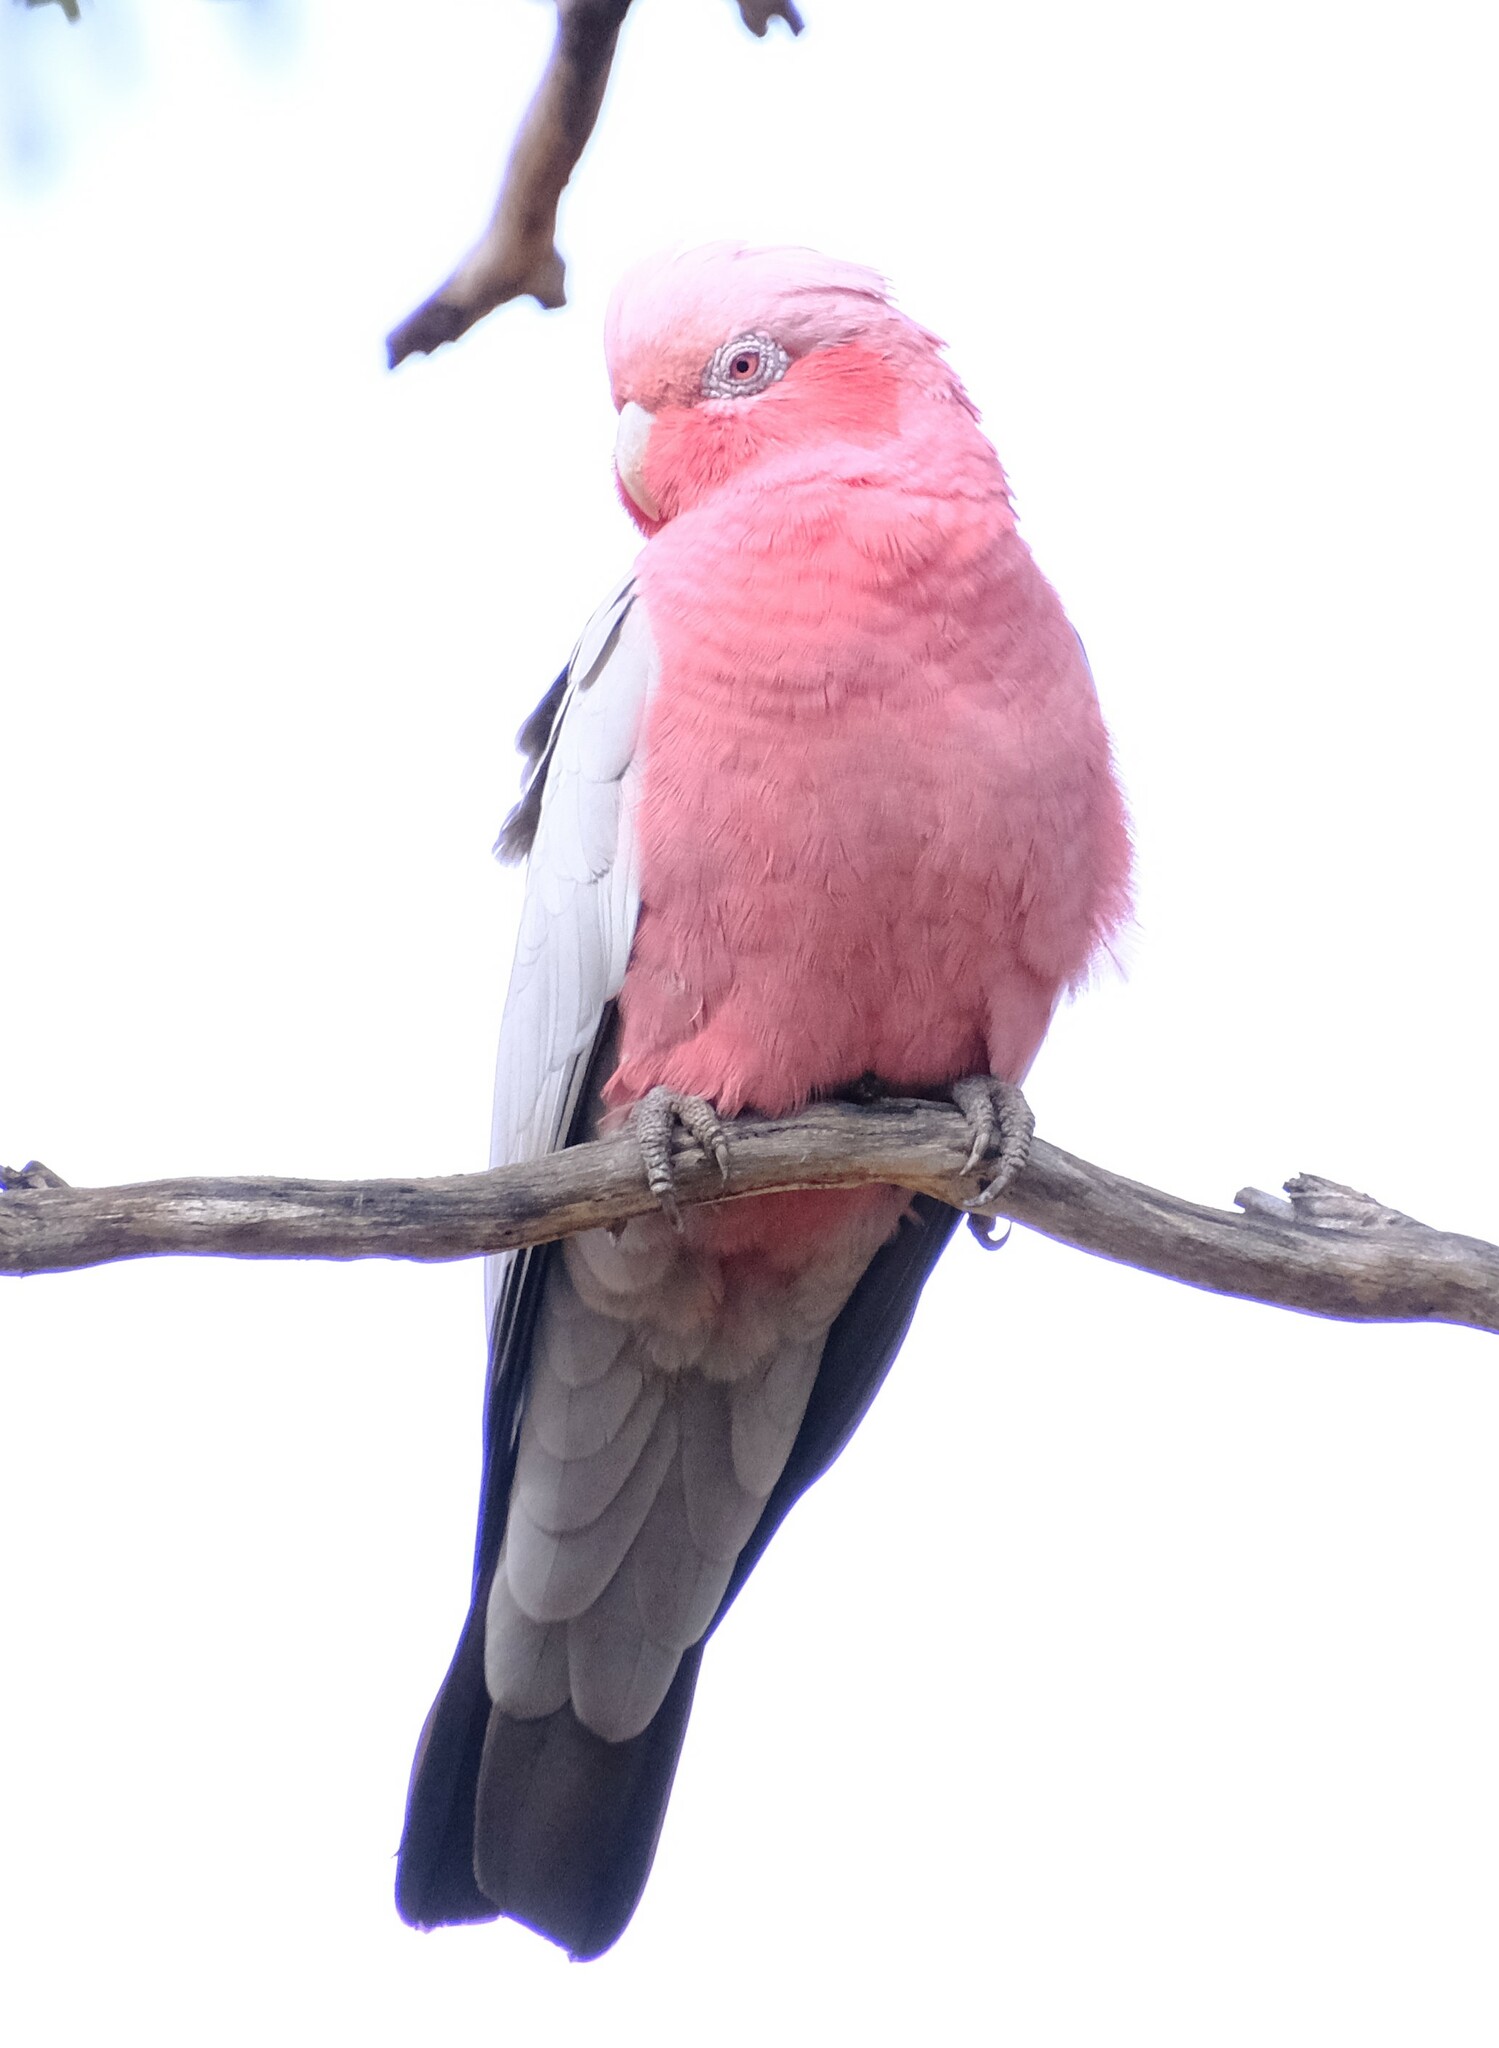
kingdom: Animalia
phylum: Chordata
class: Aves
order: Psittaciformes
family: Psittacidae
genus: Eolophus
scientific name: Eolophus roseicapilla
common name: Galah
